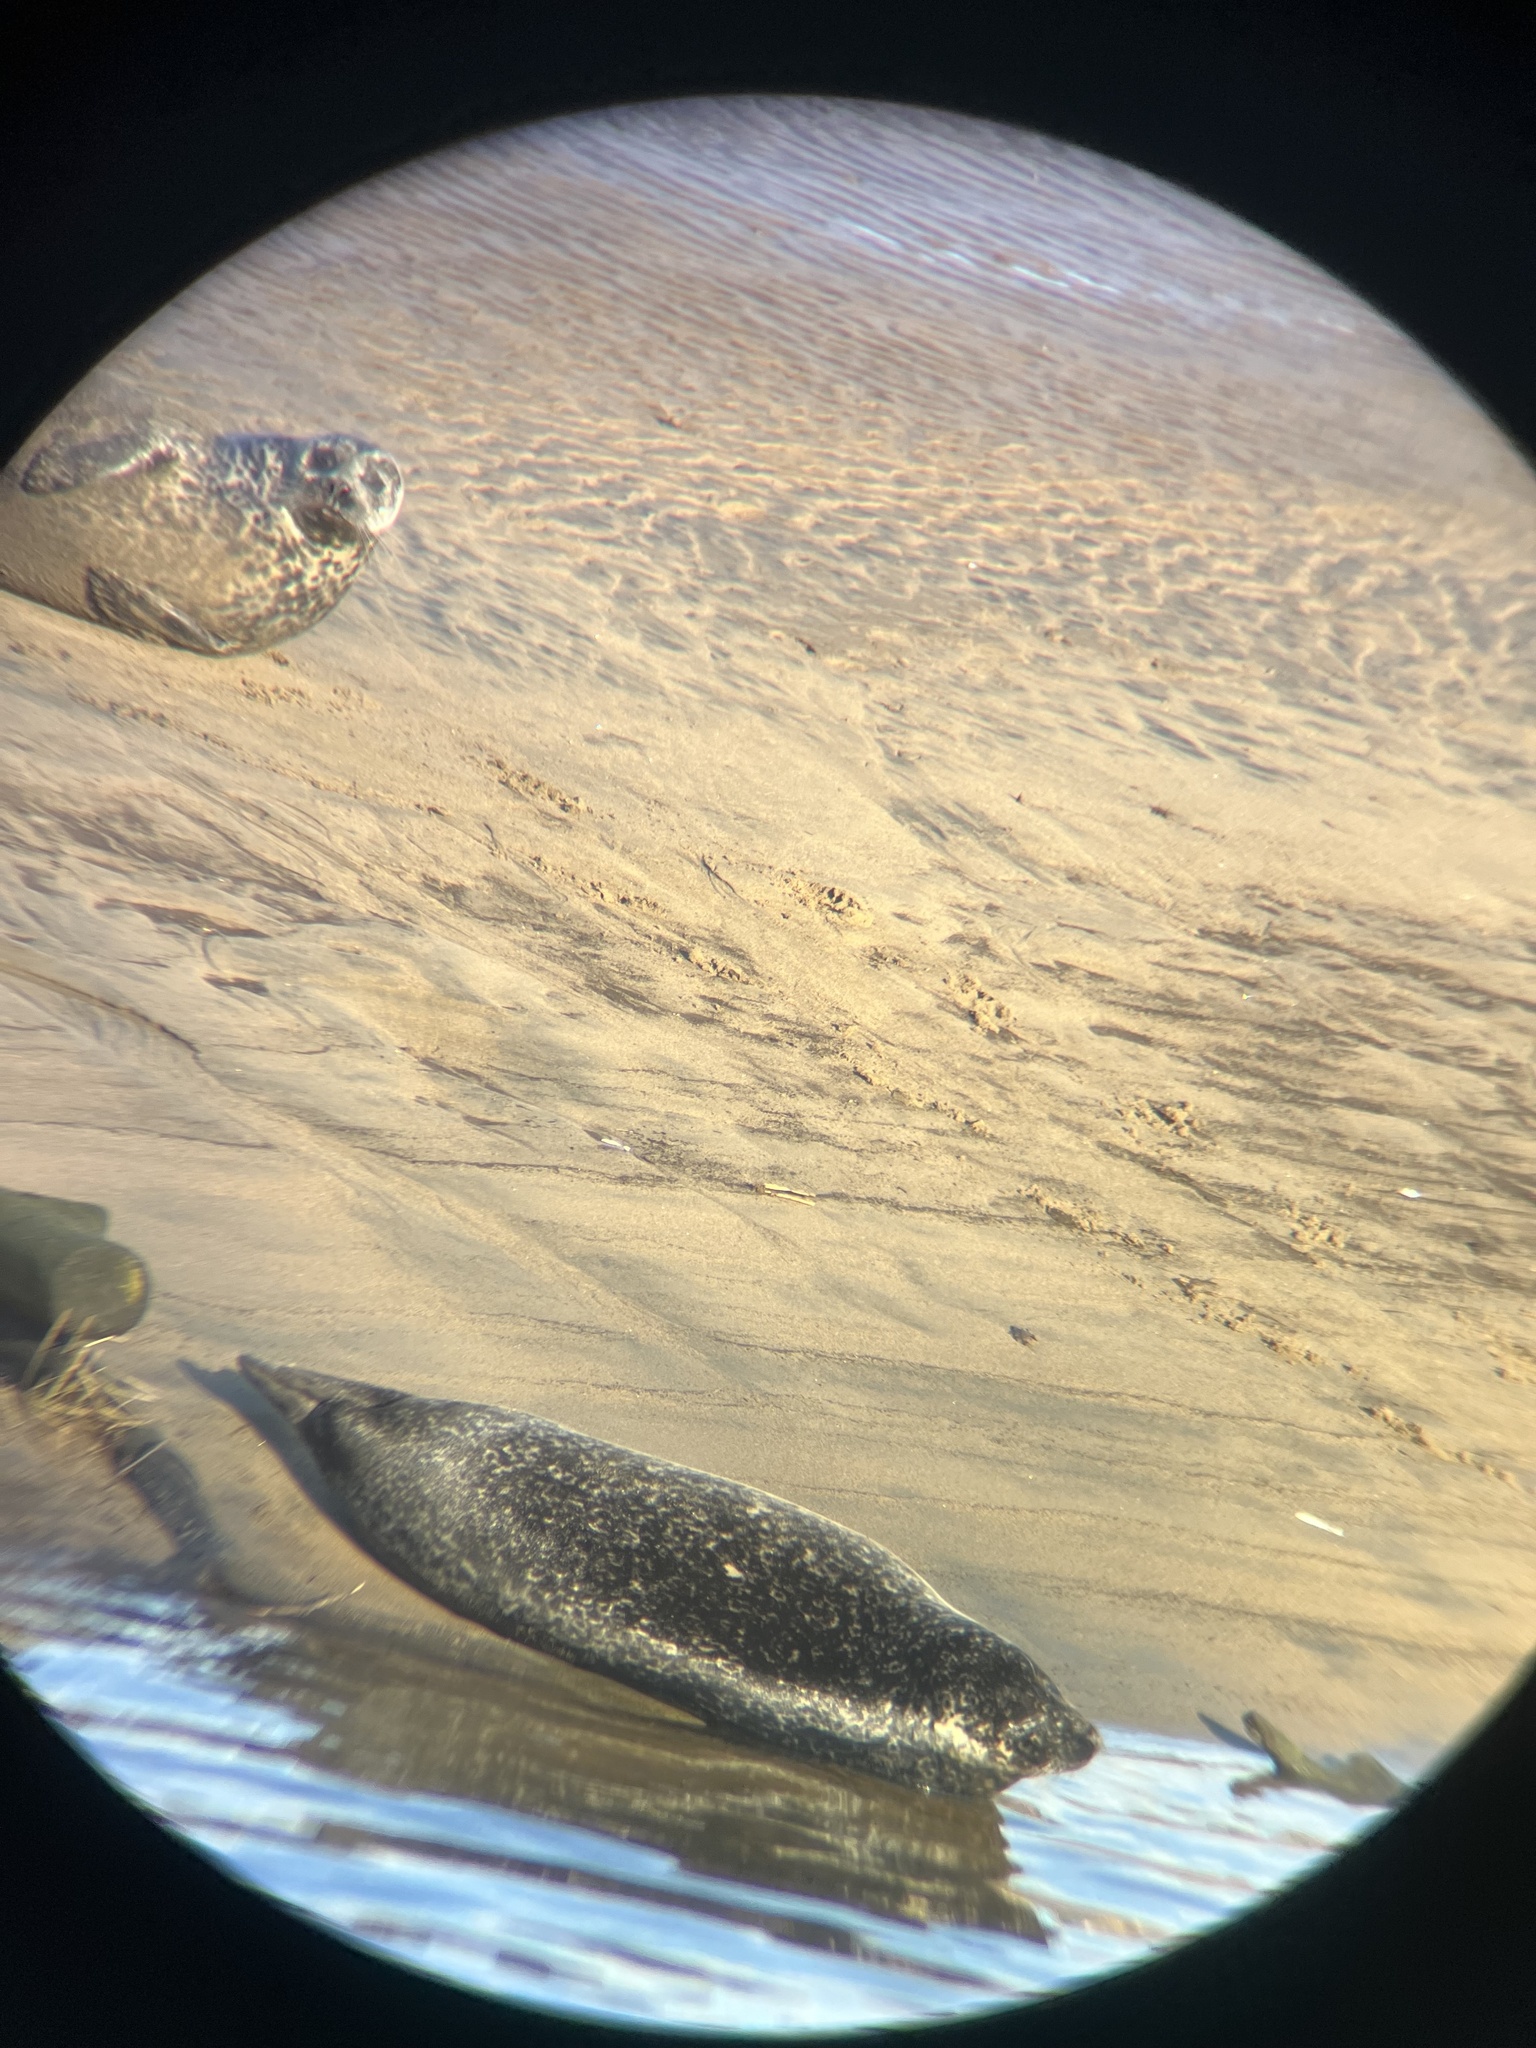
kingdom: Animalia
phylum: Chordata
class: Mammalia
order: Carnivora
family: Phocidae
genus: Phoca
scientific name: Phoca vitulina
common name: Harbor seal
